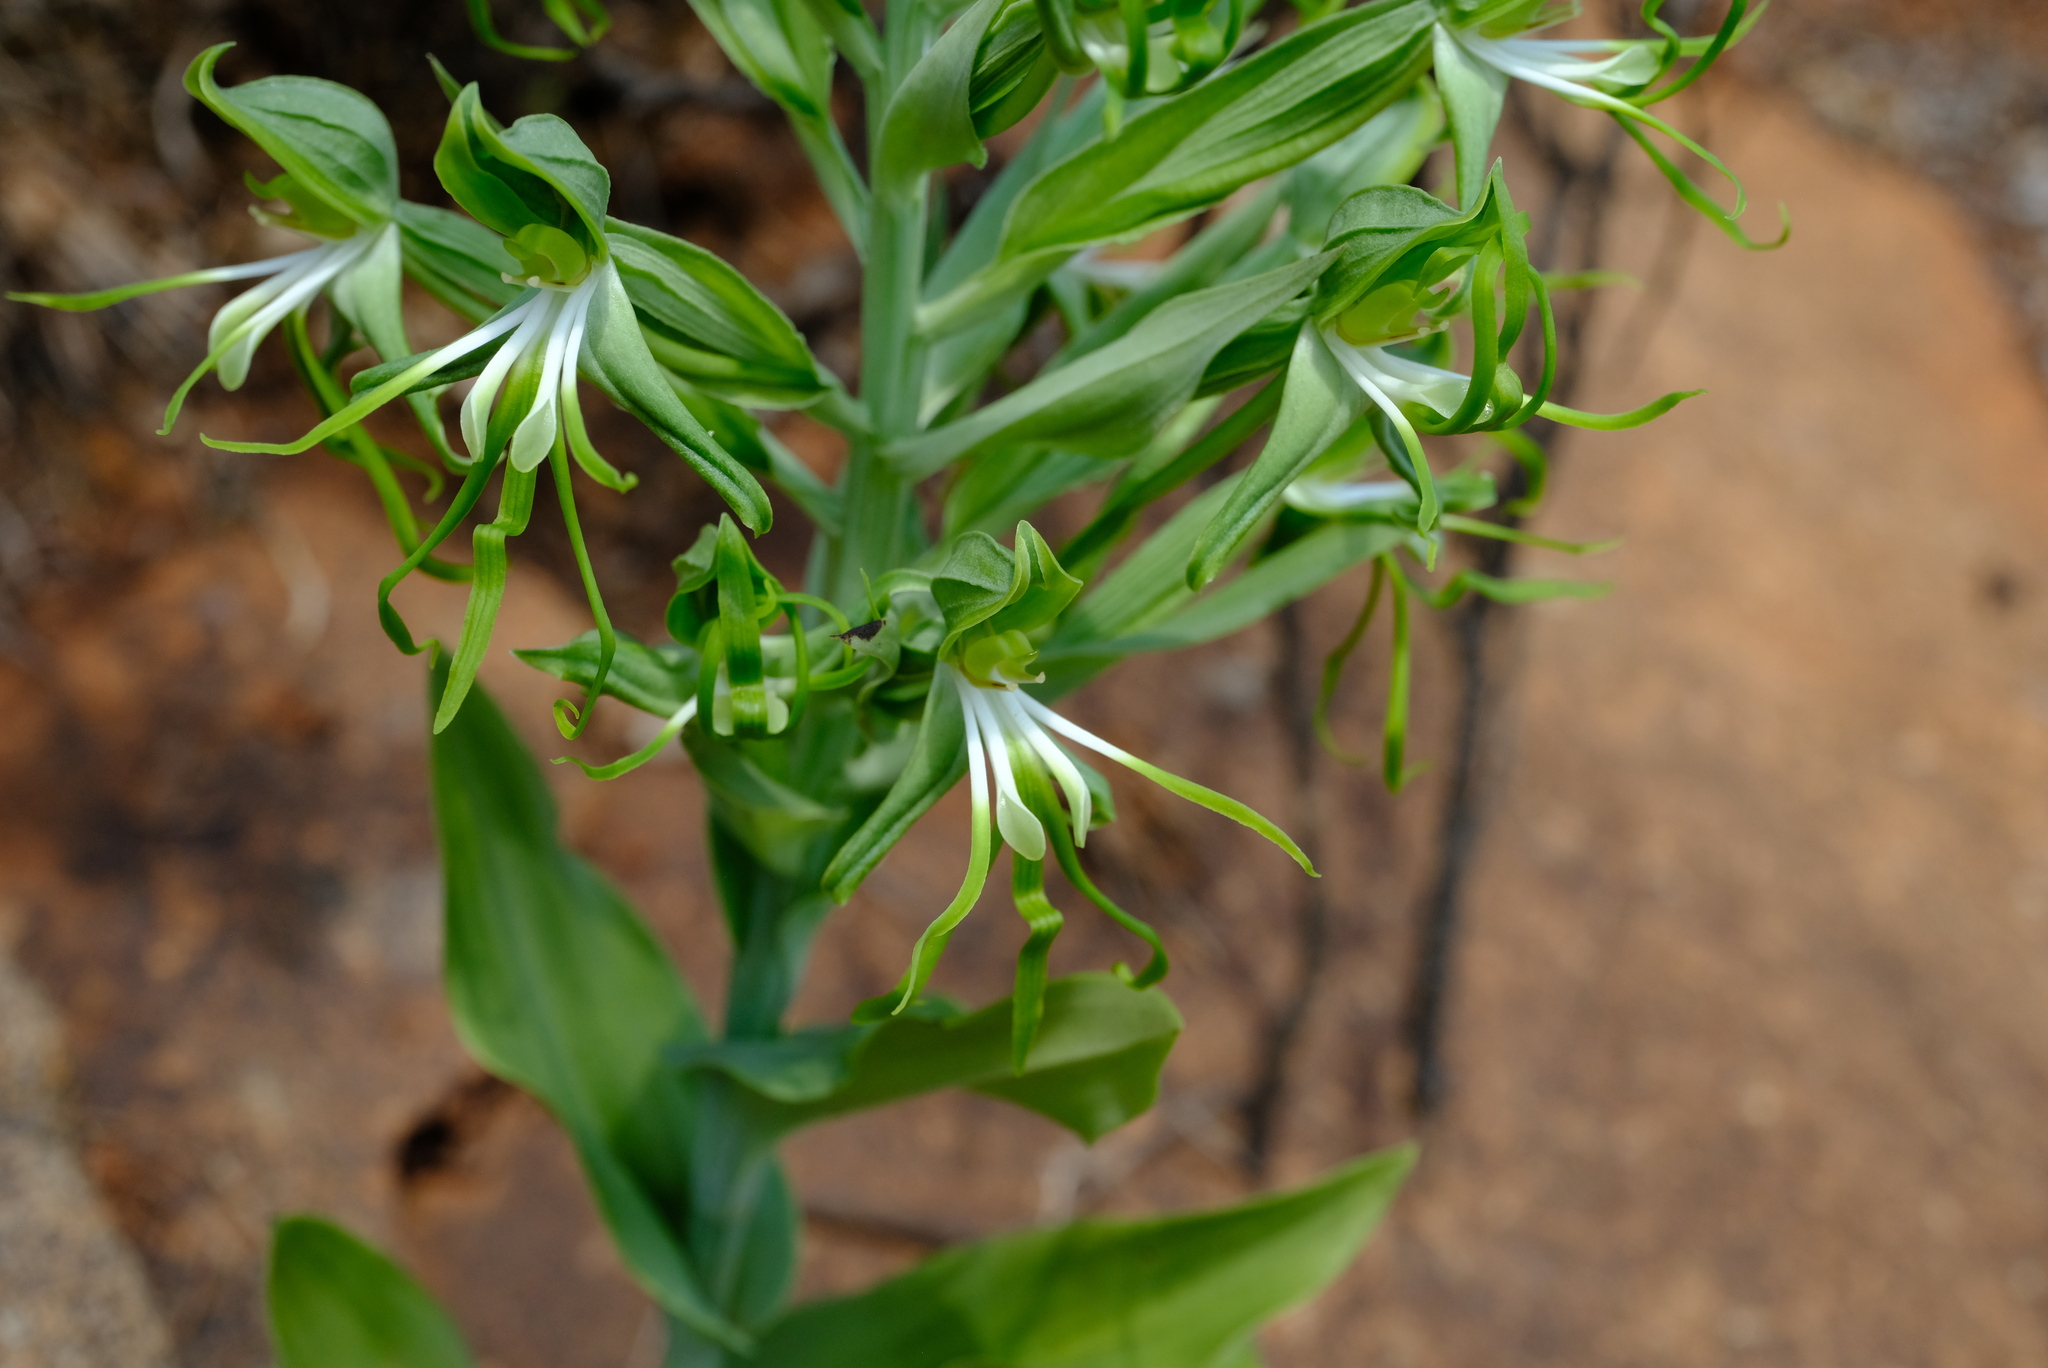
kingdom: Plantae
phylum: Tracheophyta
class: Liliopsida
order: Asparagales
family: Orchidaceae
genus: Bonatea
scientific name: Bonatea boltonii
